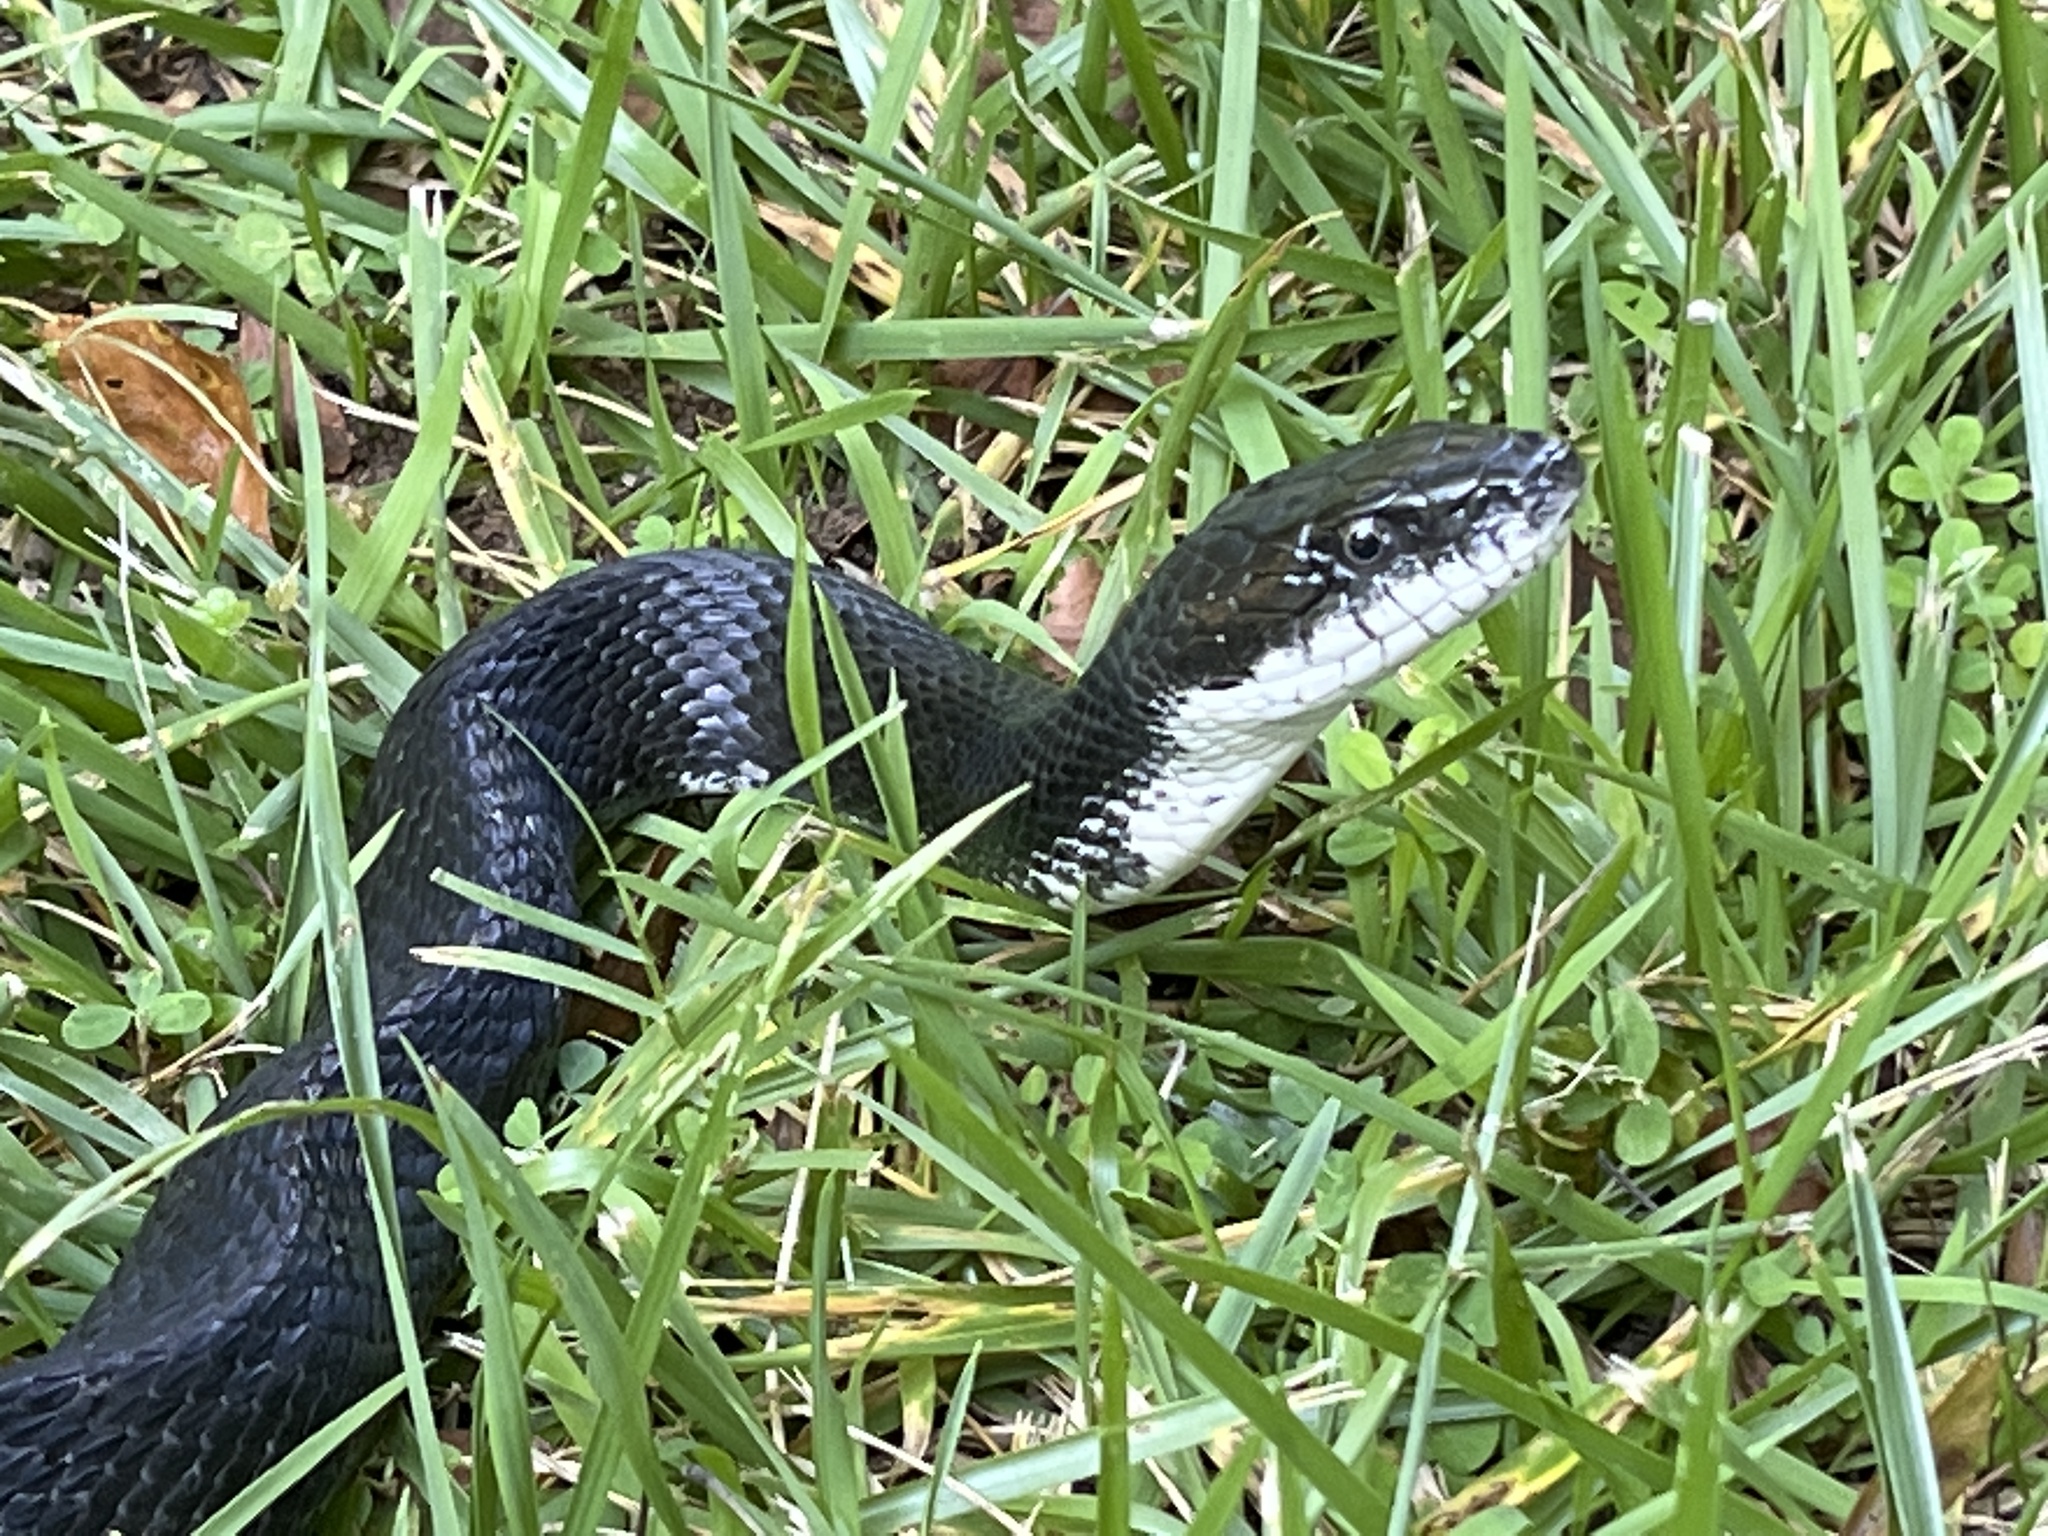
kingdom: Animalia
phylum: Chordata
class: Squamata
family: Colubridae
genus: Pantherophis
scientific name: Pantherophis alleghaniensis
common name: Eastern rat snake
